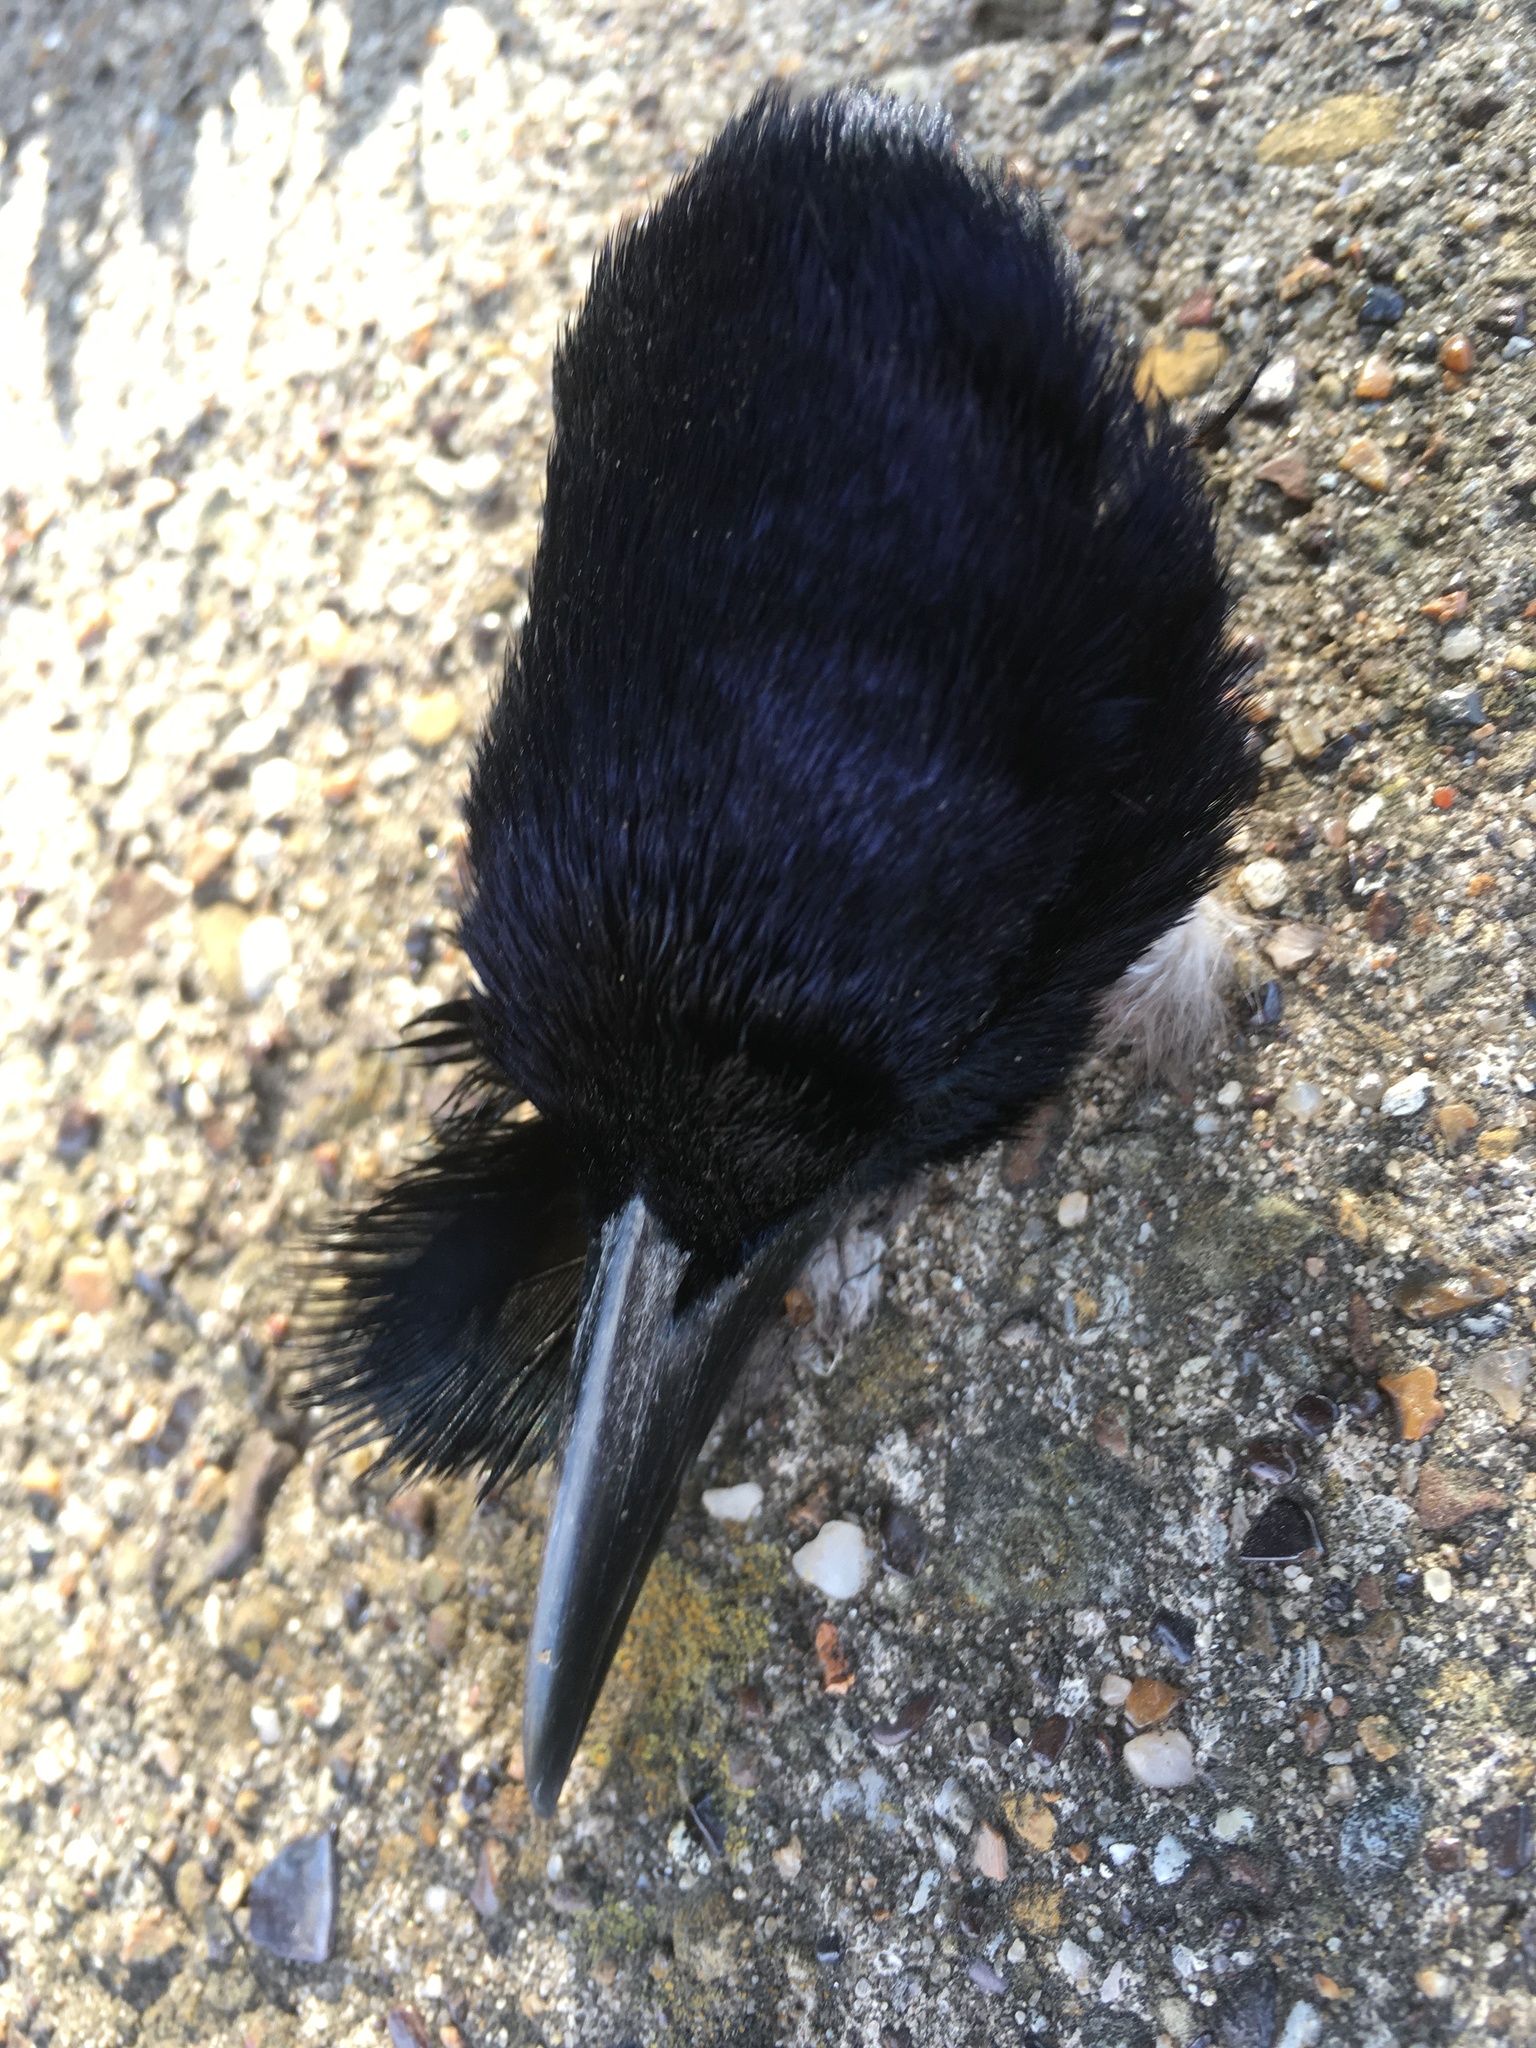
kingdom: Animalia
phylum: Chordata
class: Aves
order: Passeriformes
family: Icteridae
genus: Quiscalus
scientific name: Quiscalus mexicanus
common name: Great-tailed grackle
